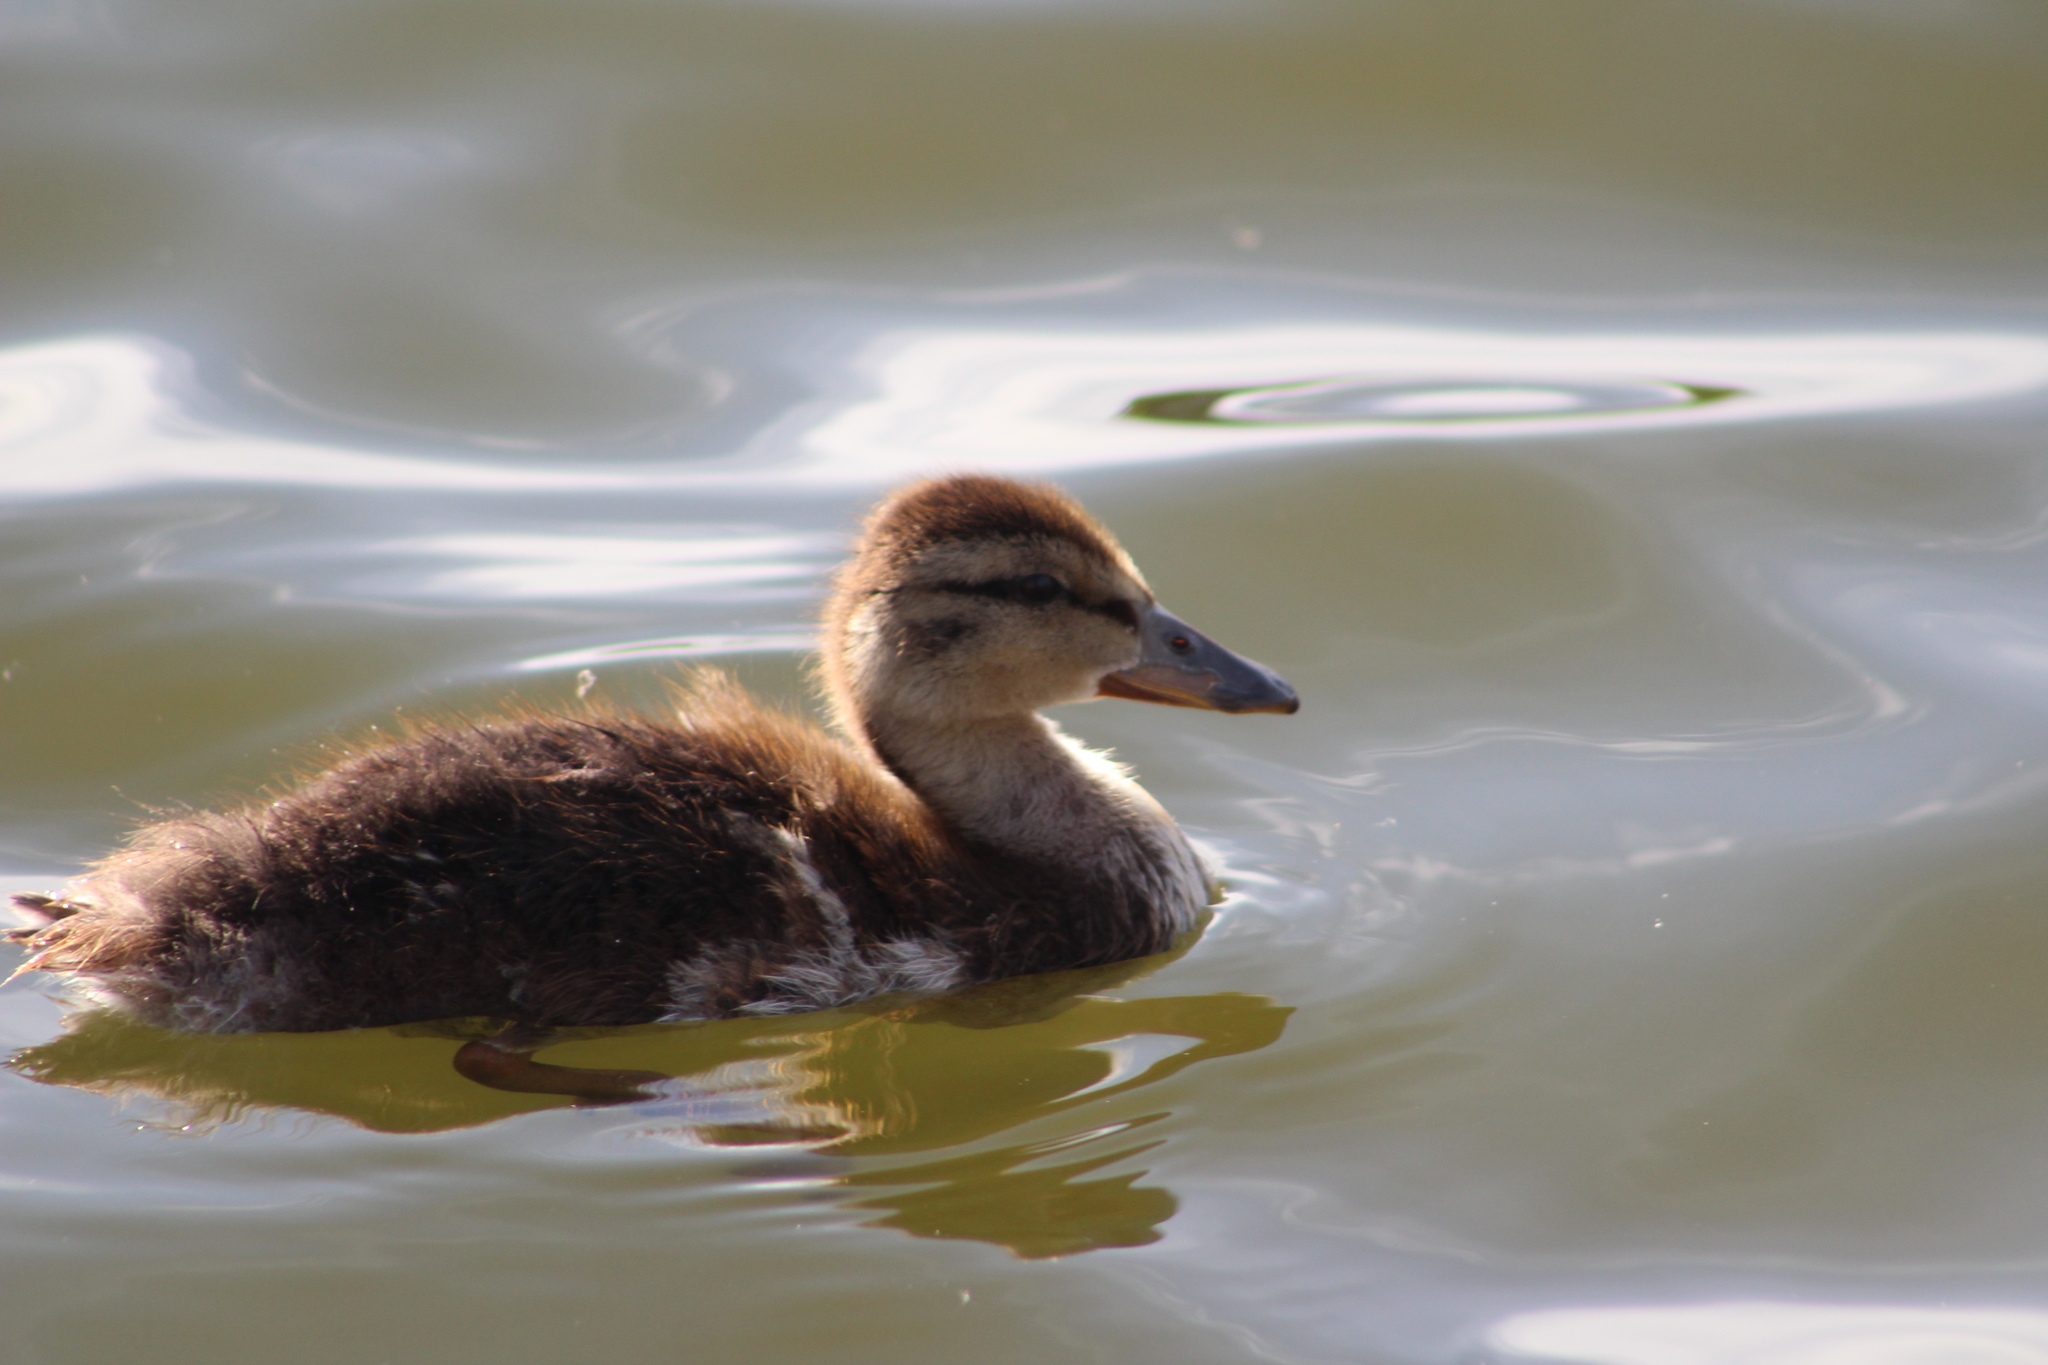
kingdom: Animalia
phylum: Chordata
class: Aves
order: Anseriformes
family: Anatidae
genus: Anas
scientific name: Anas platyrhynchos
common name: Mallard
